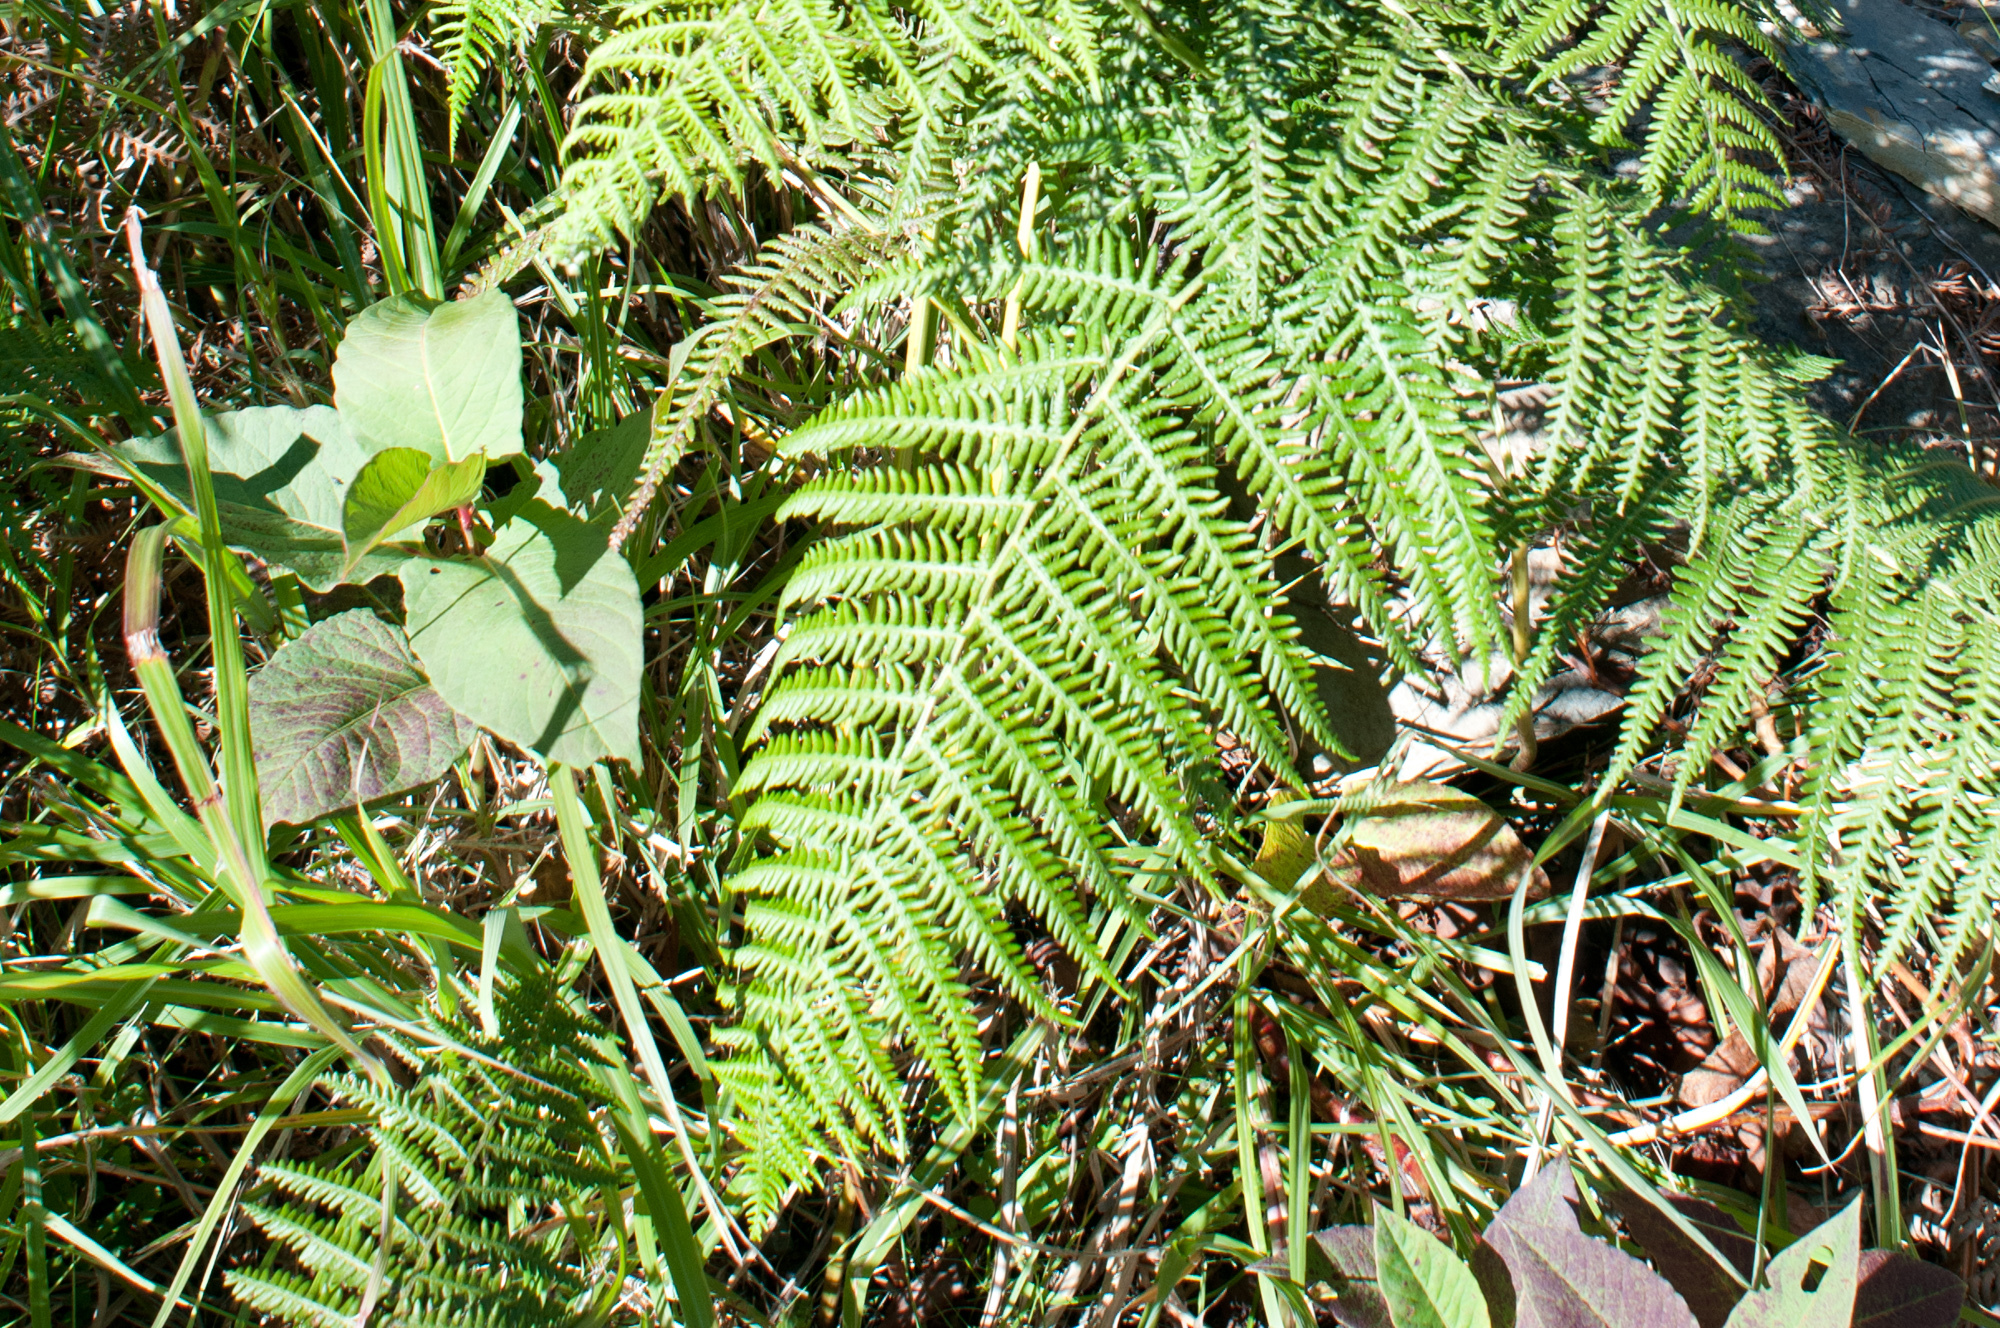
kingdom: Plantae
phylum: Tracheophyta
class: Polypodiopsida
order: Polypodiales
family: Dennstaedtiaceae
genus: Pteridium
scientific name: Pteridium aquilinum
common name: Bracken
